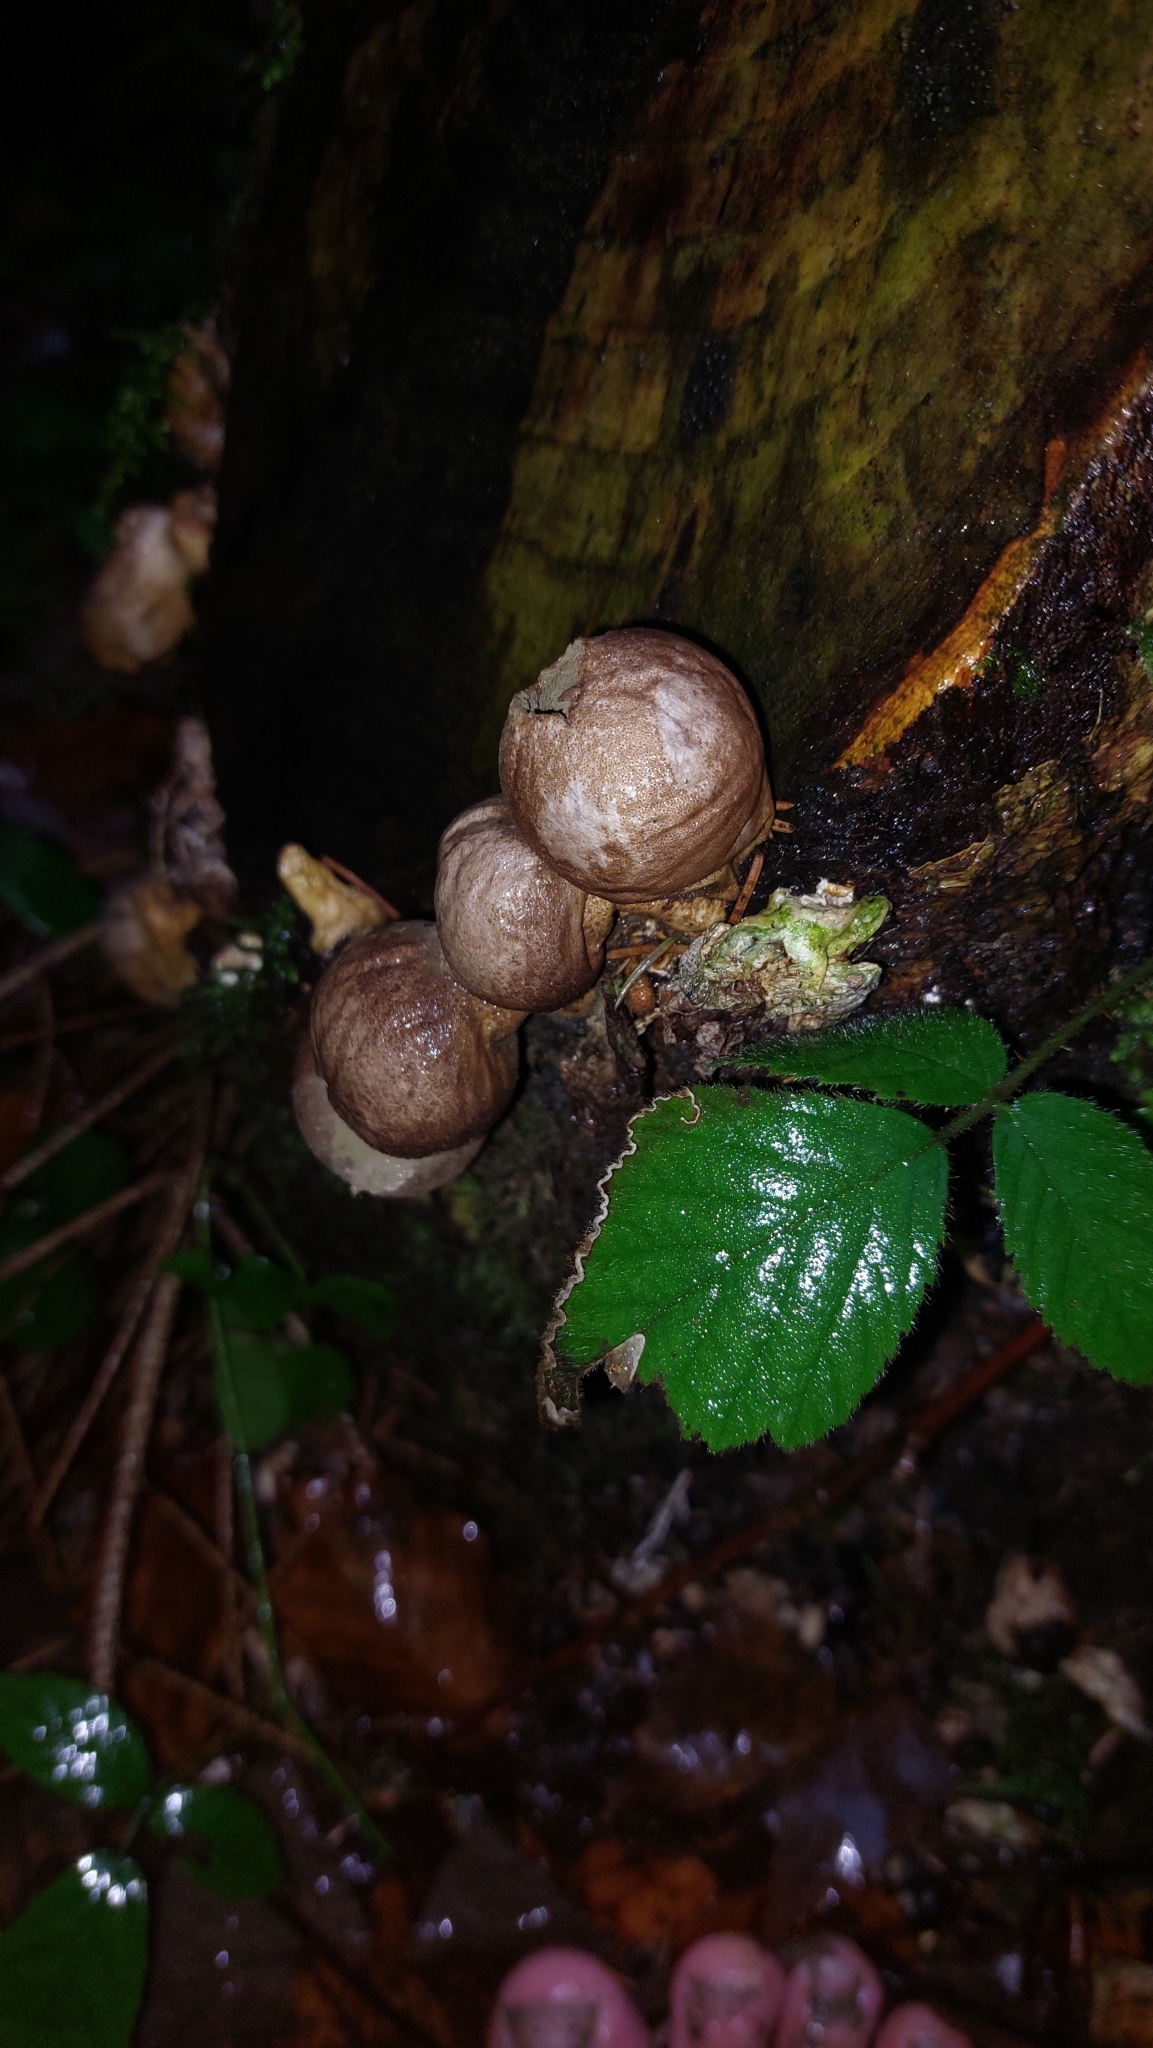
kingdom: Fungi
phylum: Basidiomycota
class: Agaricomycetes
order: Agaricales
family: Lycoperdaceae
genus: Apioperdon
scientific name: Apioperdon pyriforme
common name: Pear-shaped puffball
